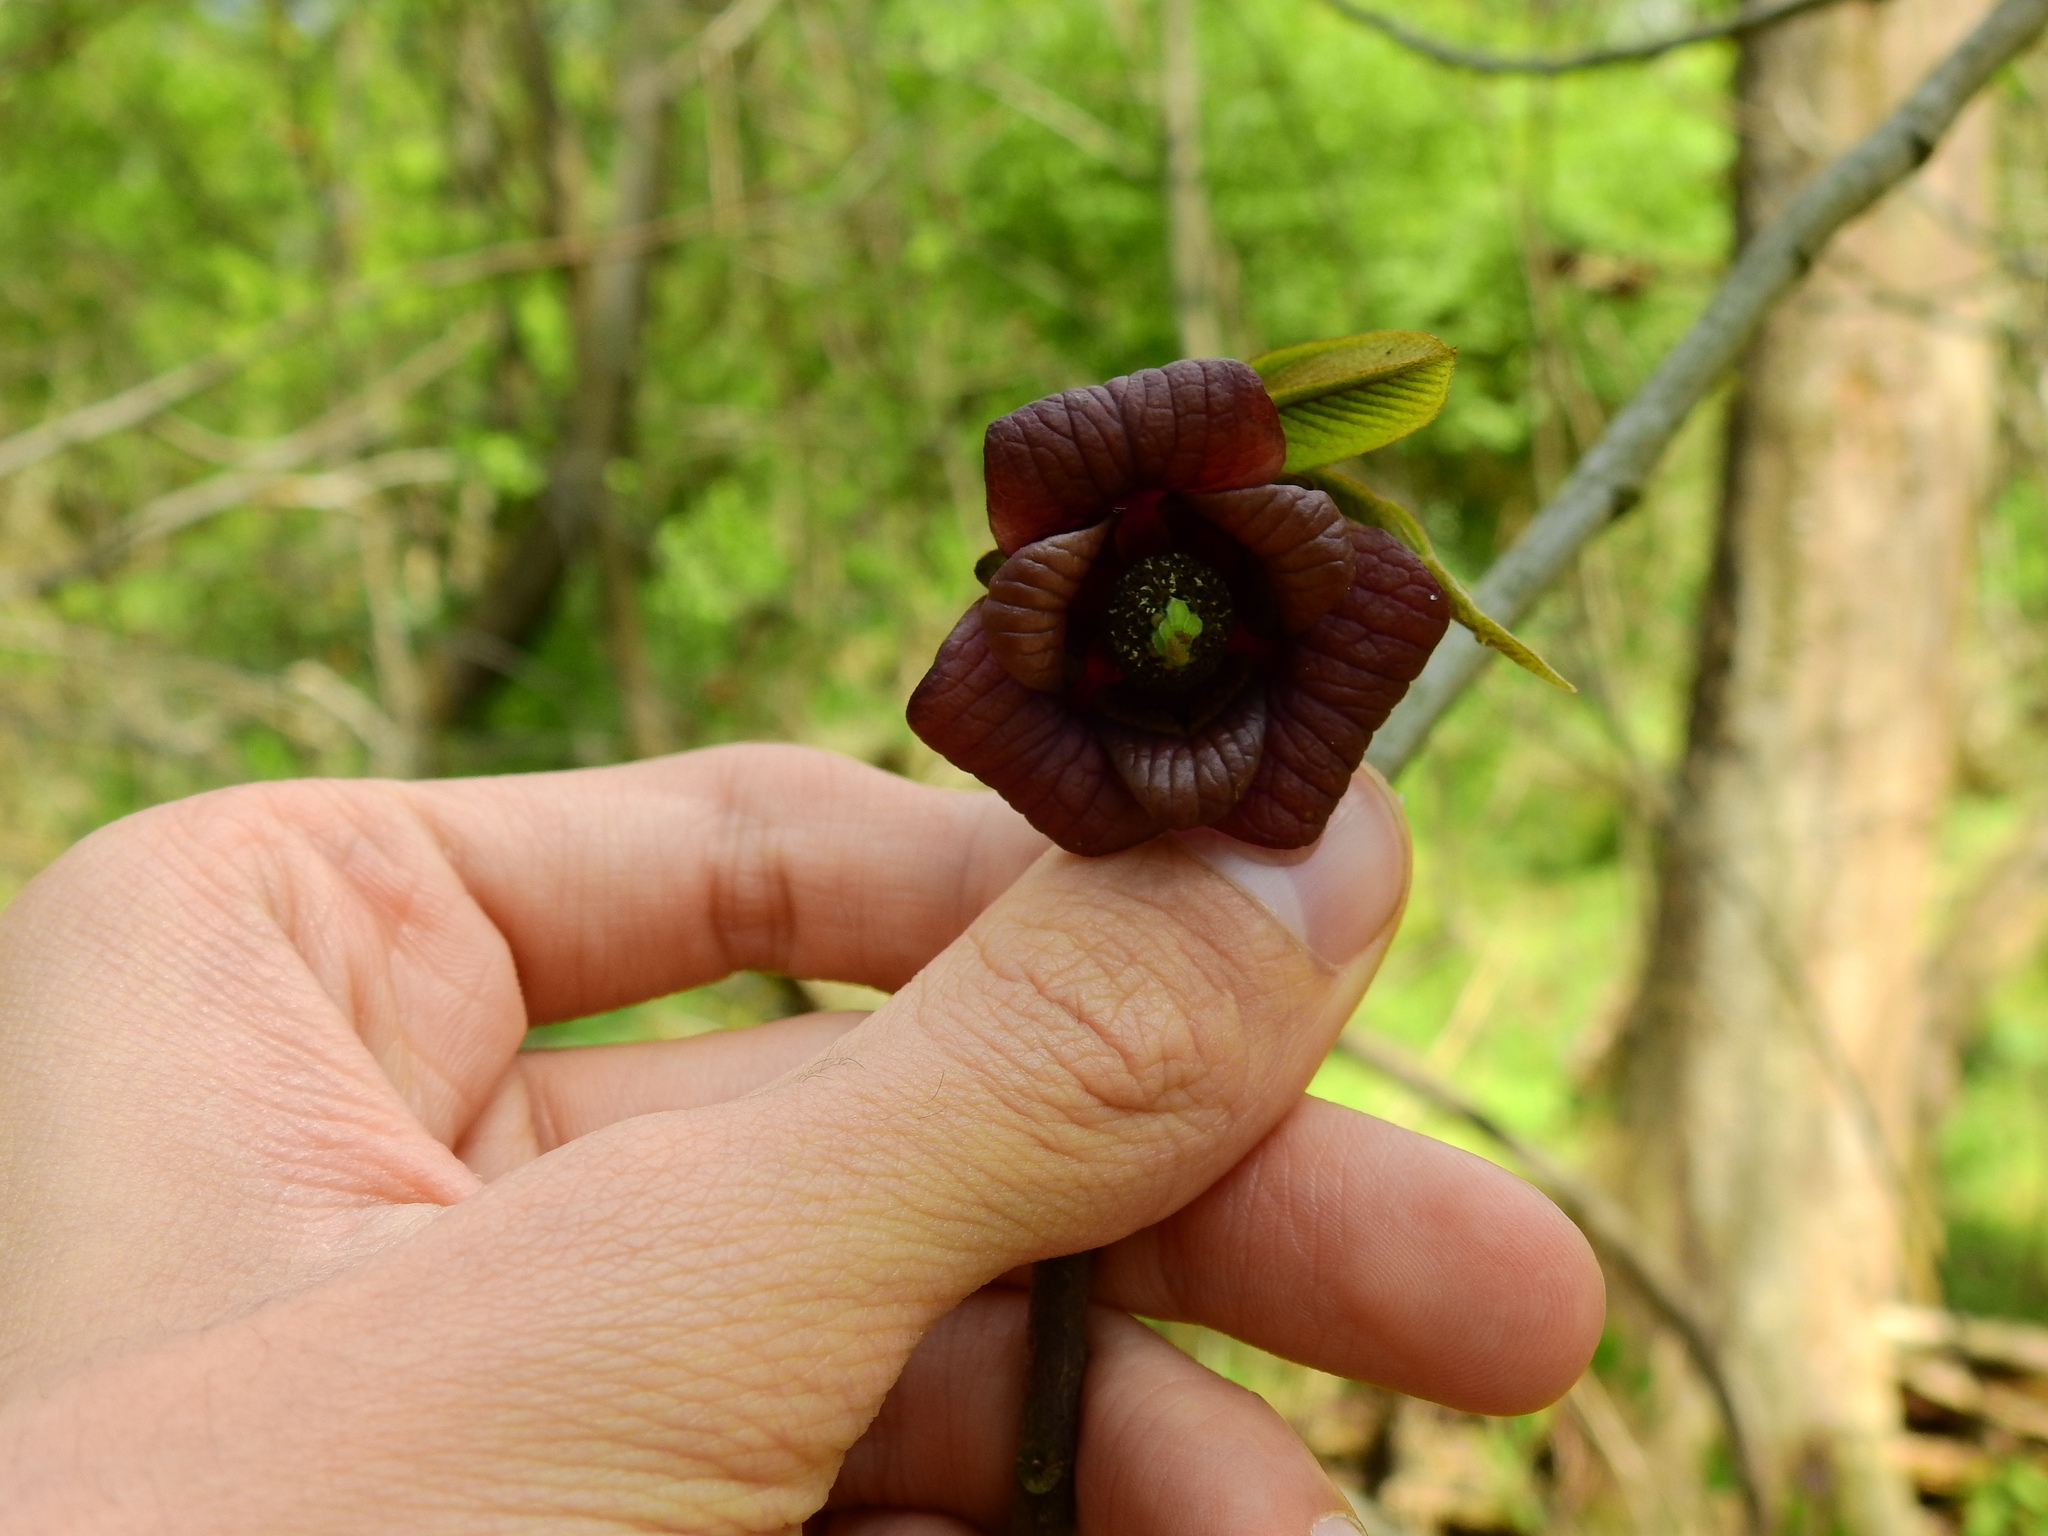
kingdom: Plantae
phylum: Tracheophyta
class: Magnoliopsida
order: Magnoliales
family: Annonaceae
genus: Asimina
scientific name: Asimina triloba
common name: Dog-banana
